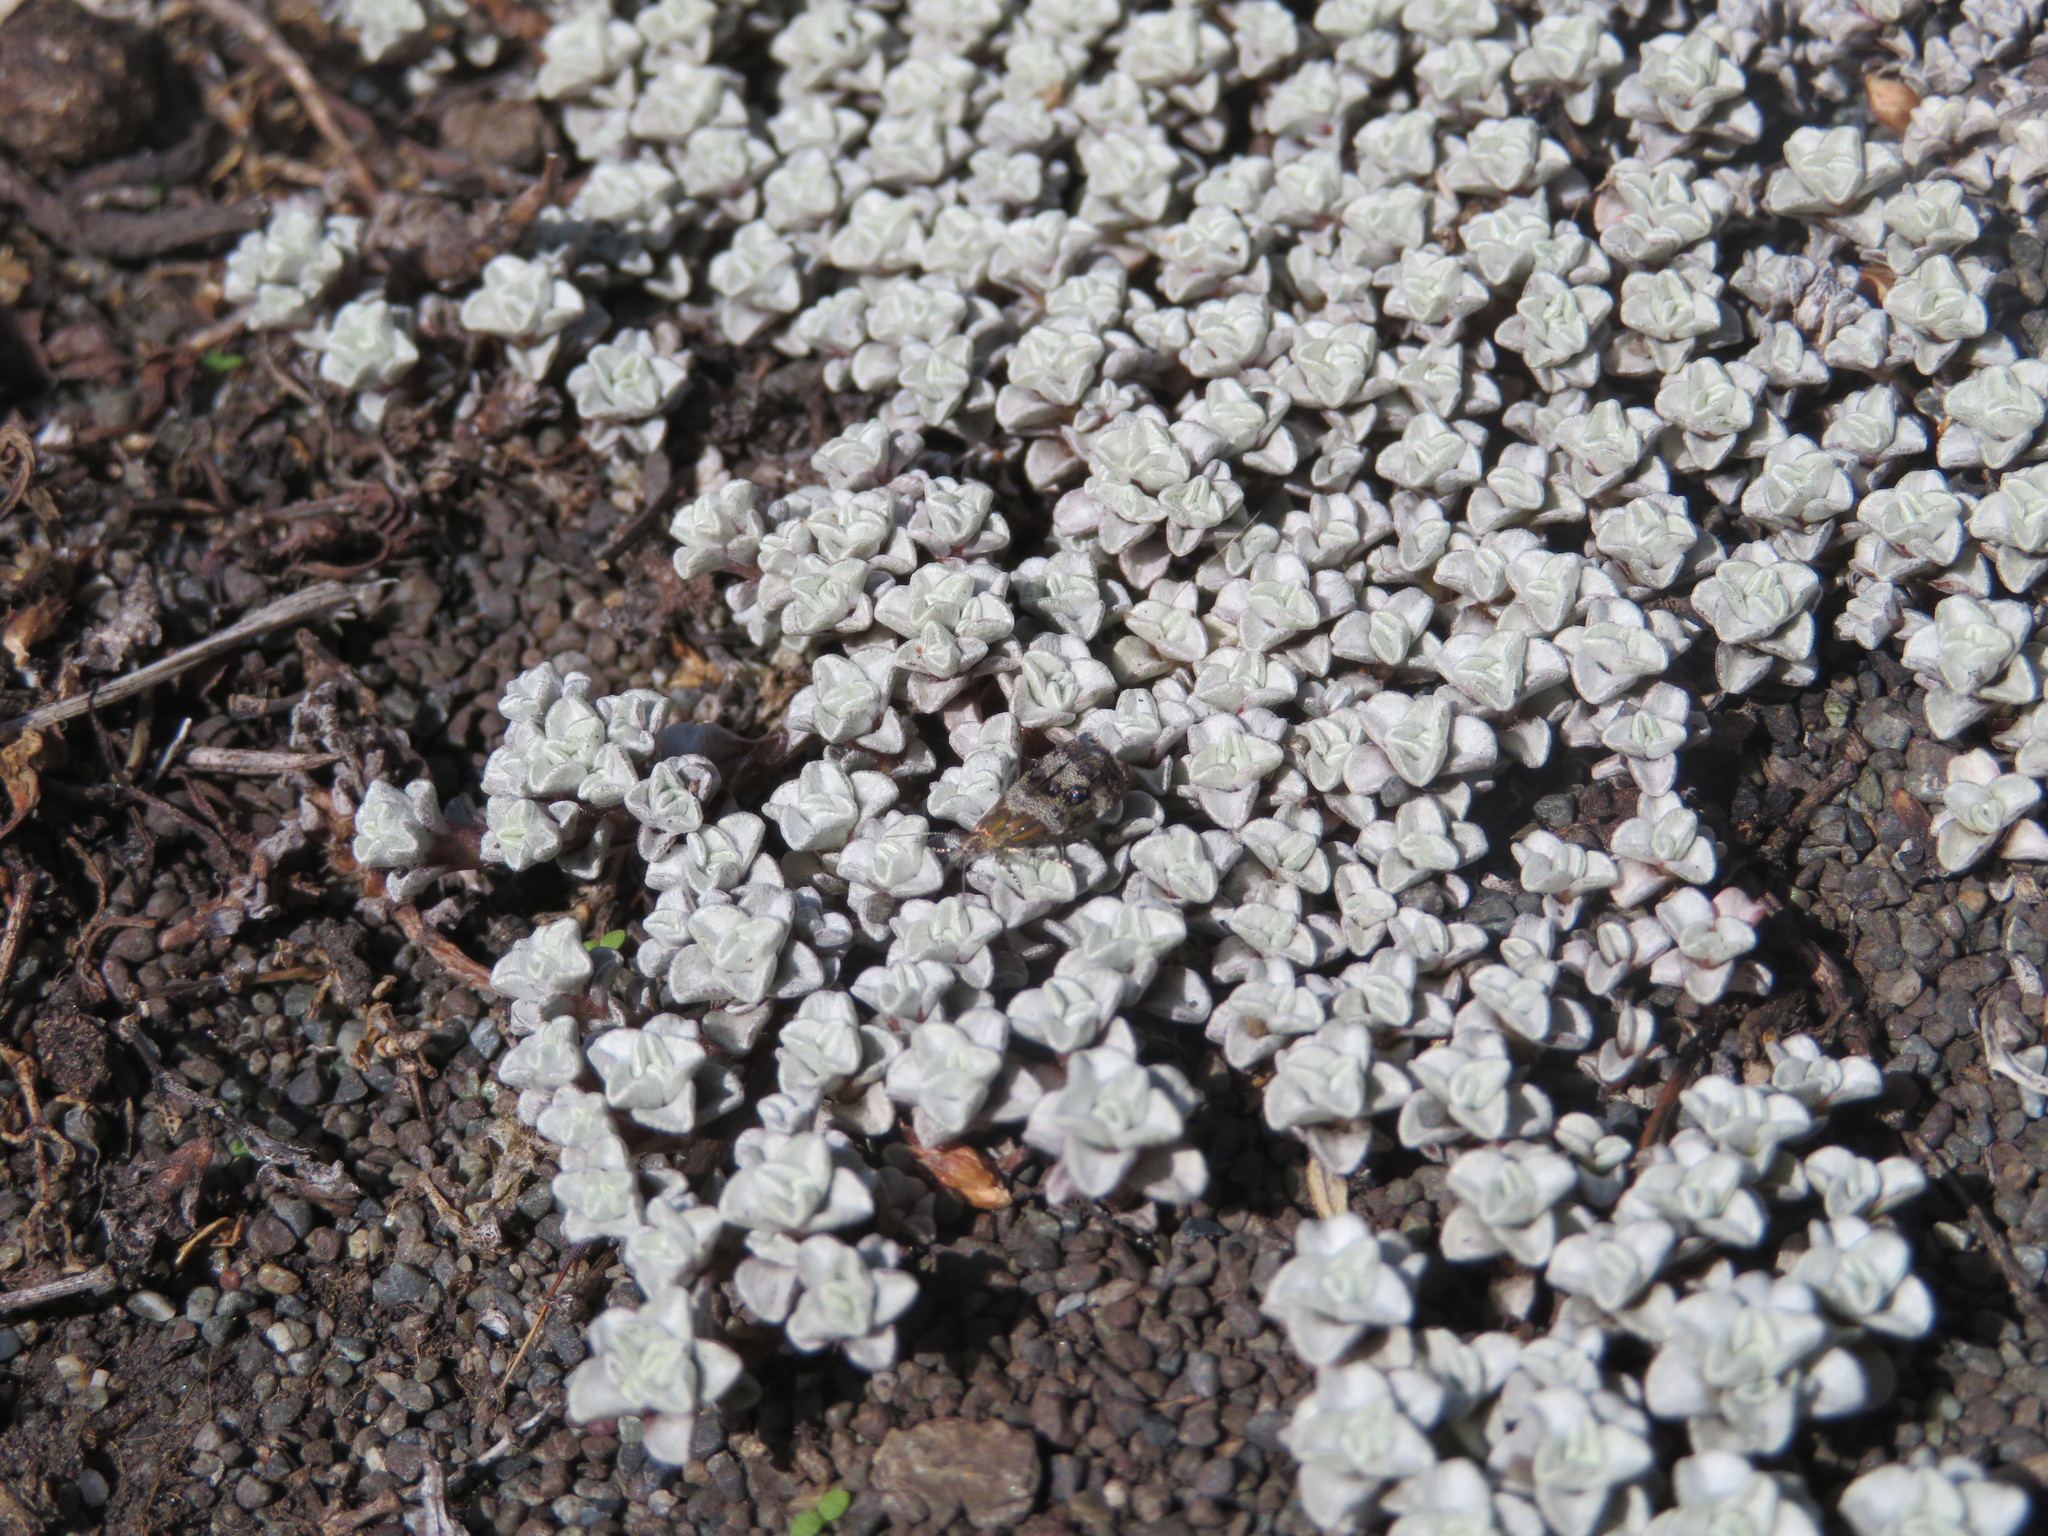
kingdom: Animalia
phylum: Arthropoda
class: Insecta
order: Lepidoptera
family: Choreutidae
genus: Tebenna
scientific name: Tebenna micalis
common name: Vagrant twitcher
